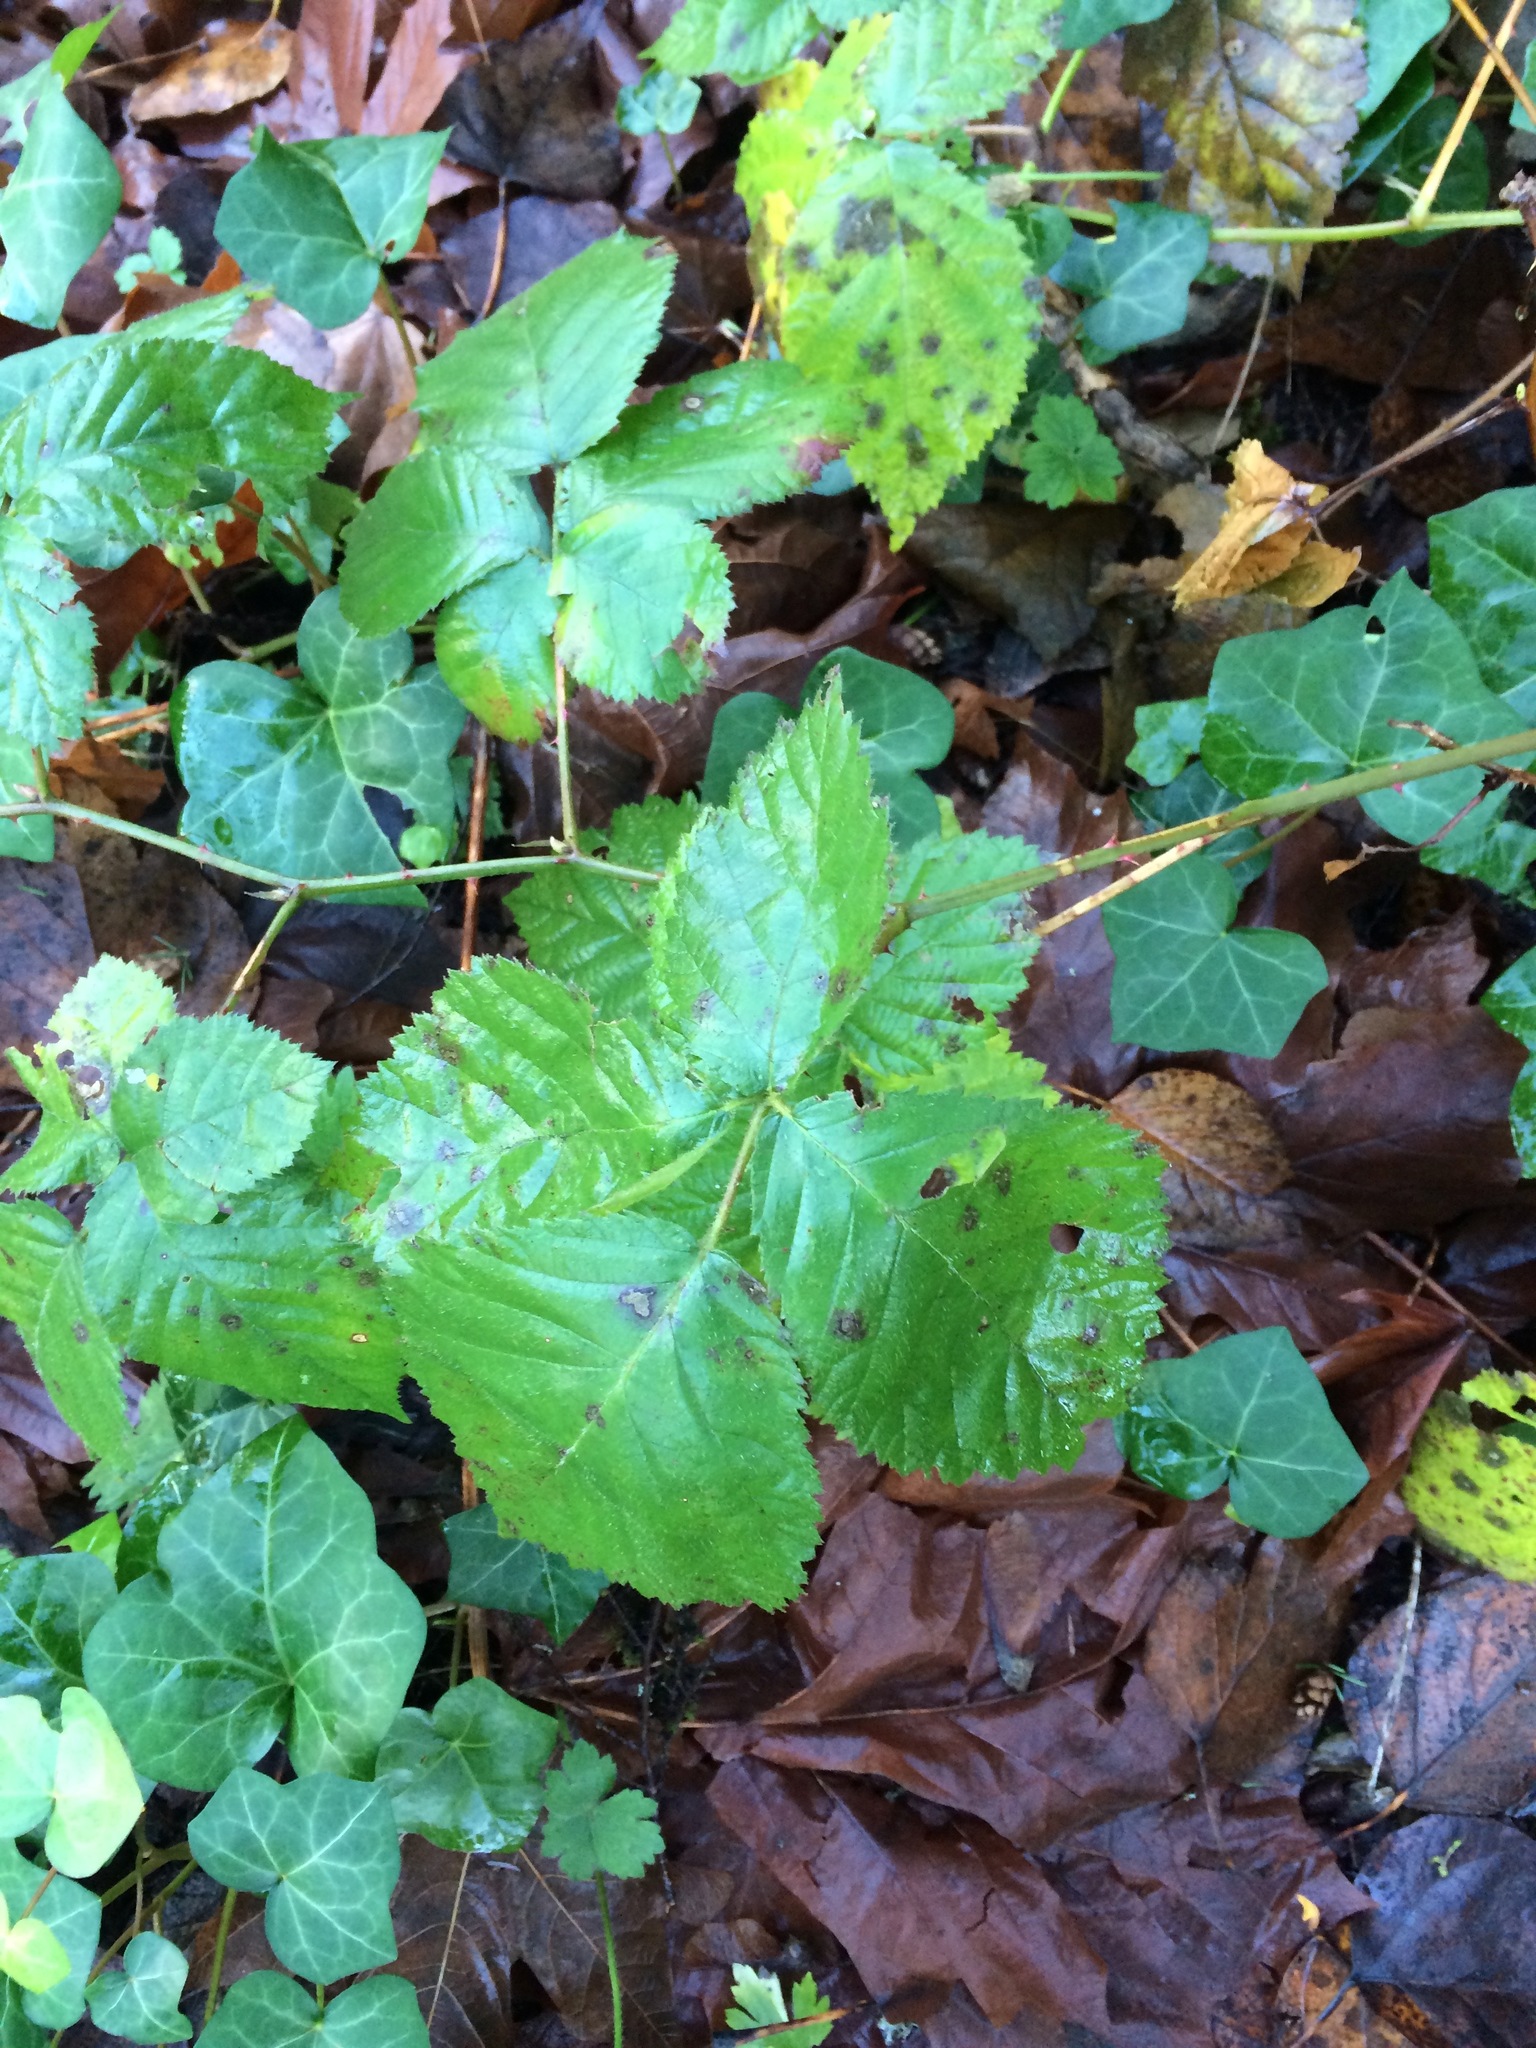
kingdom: Plantae
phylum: Tracheophyta
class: Magnoliopsida
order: Rosales
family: Rosaceae
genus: Rubus
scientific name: Rubus bifrons
